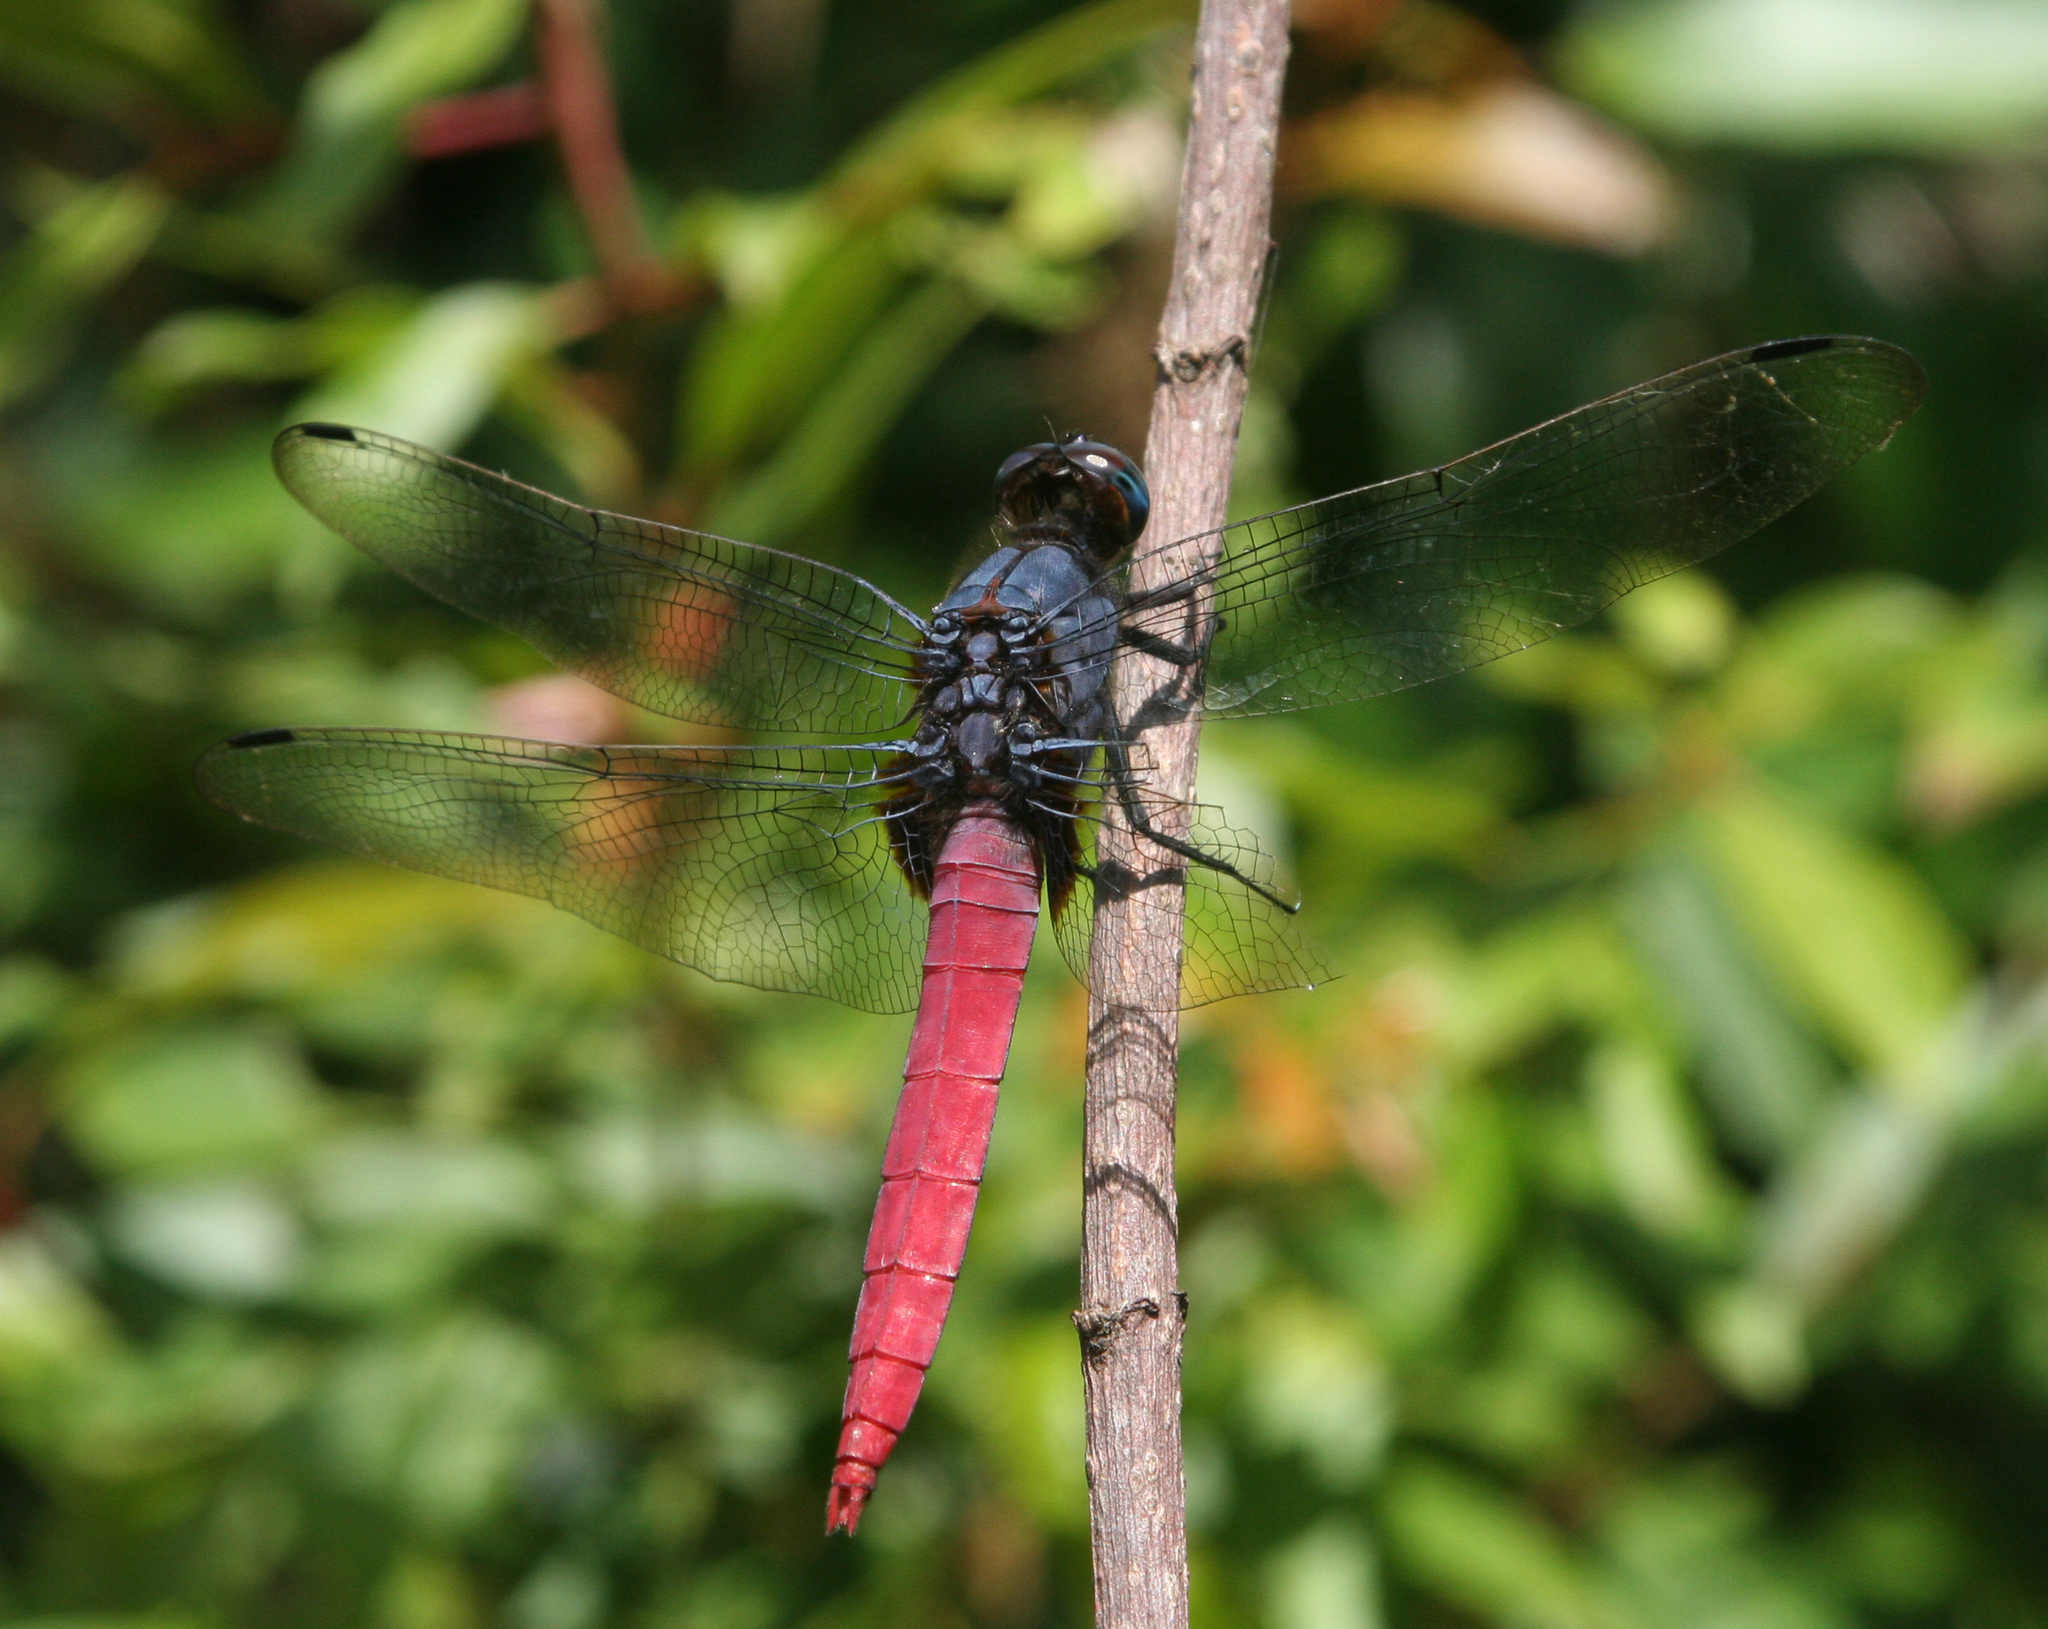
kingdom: Animalia
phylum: Arthropoda
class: Insecta
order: Odonata
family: Libellulidae
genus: Orthetrum
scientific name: Orthetrum pruinosum
